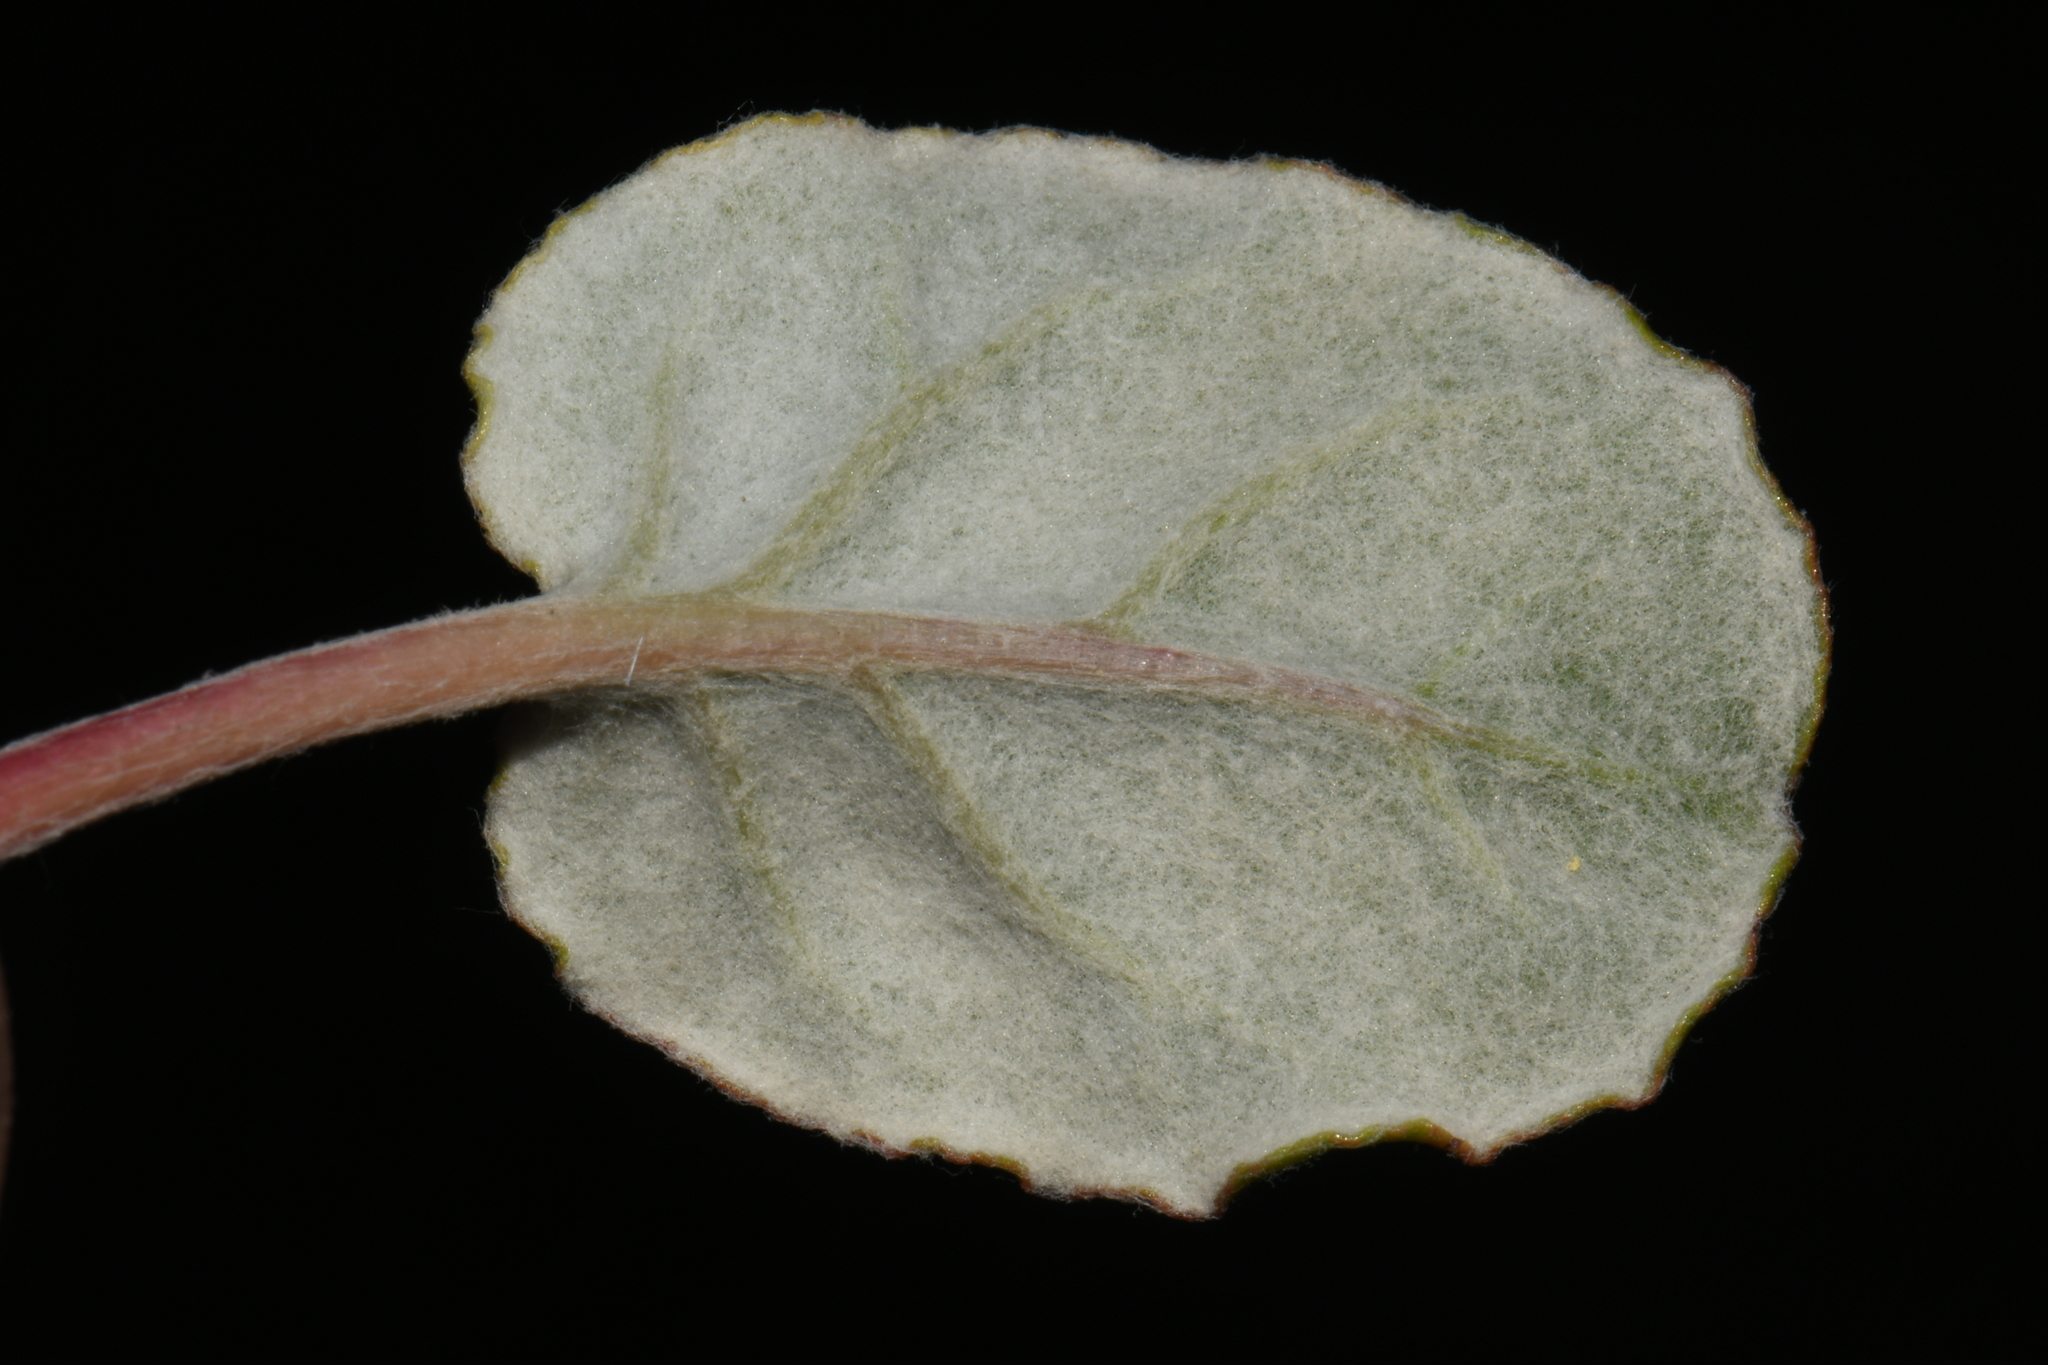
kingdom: Plantae
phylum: Tracheophyta
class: Magnoliopsida
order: Caryophyllales
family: Polygonaceae
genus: Eriogonum
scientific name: Eriogonum nudum
